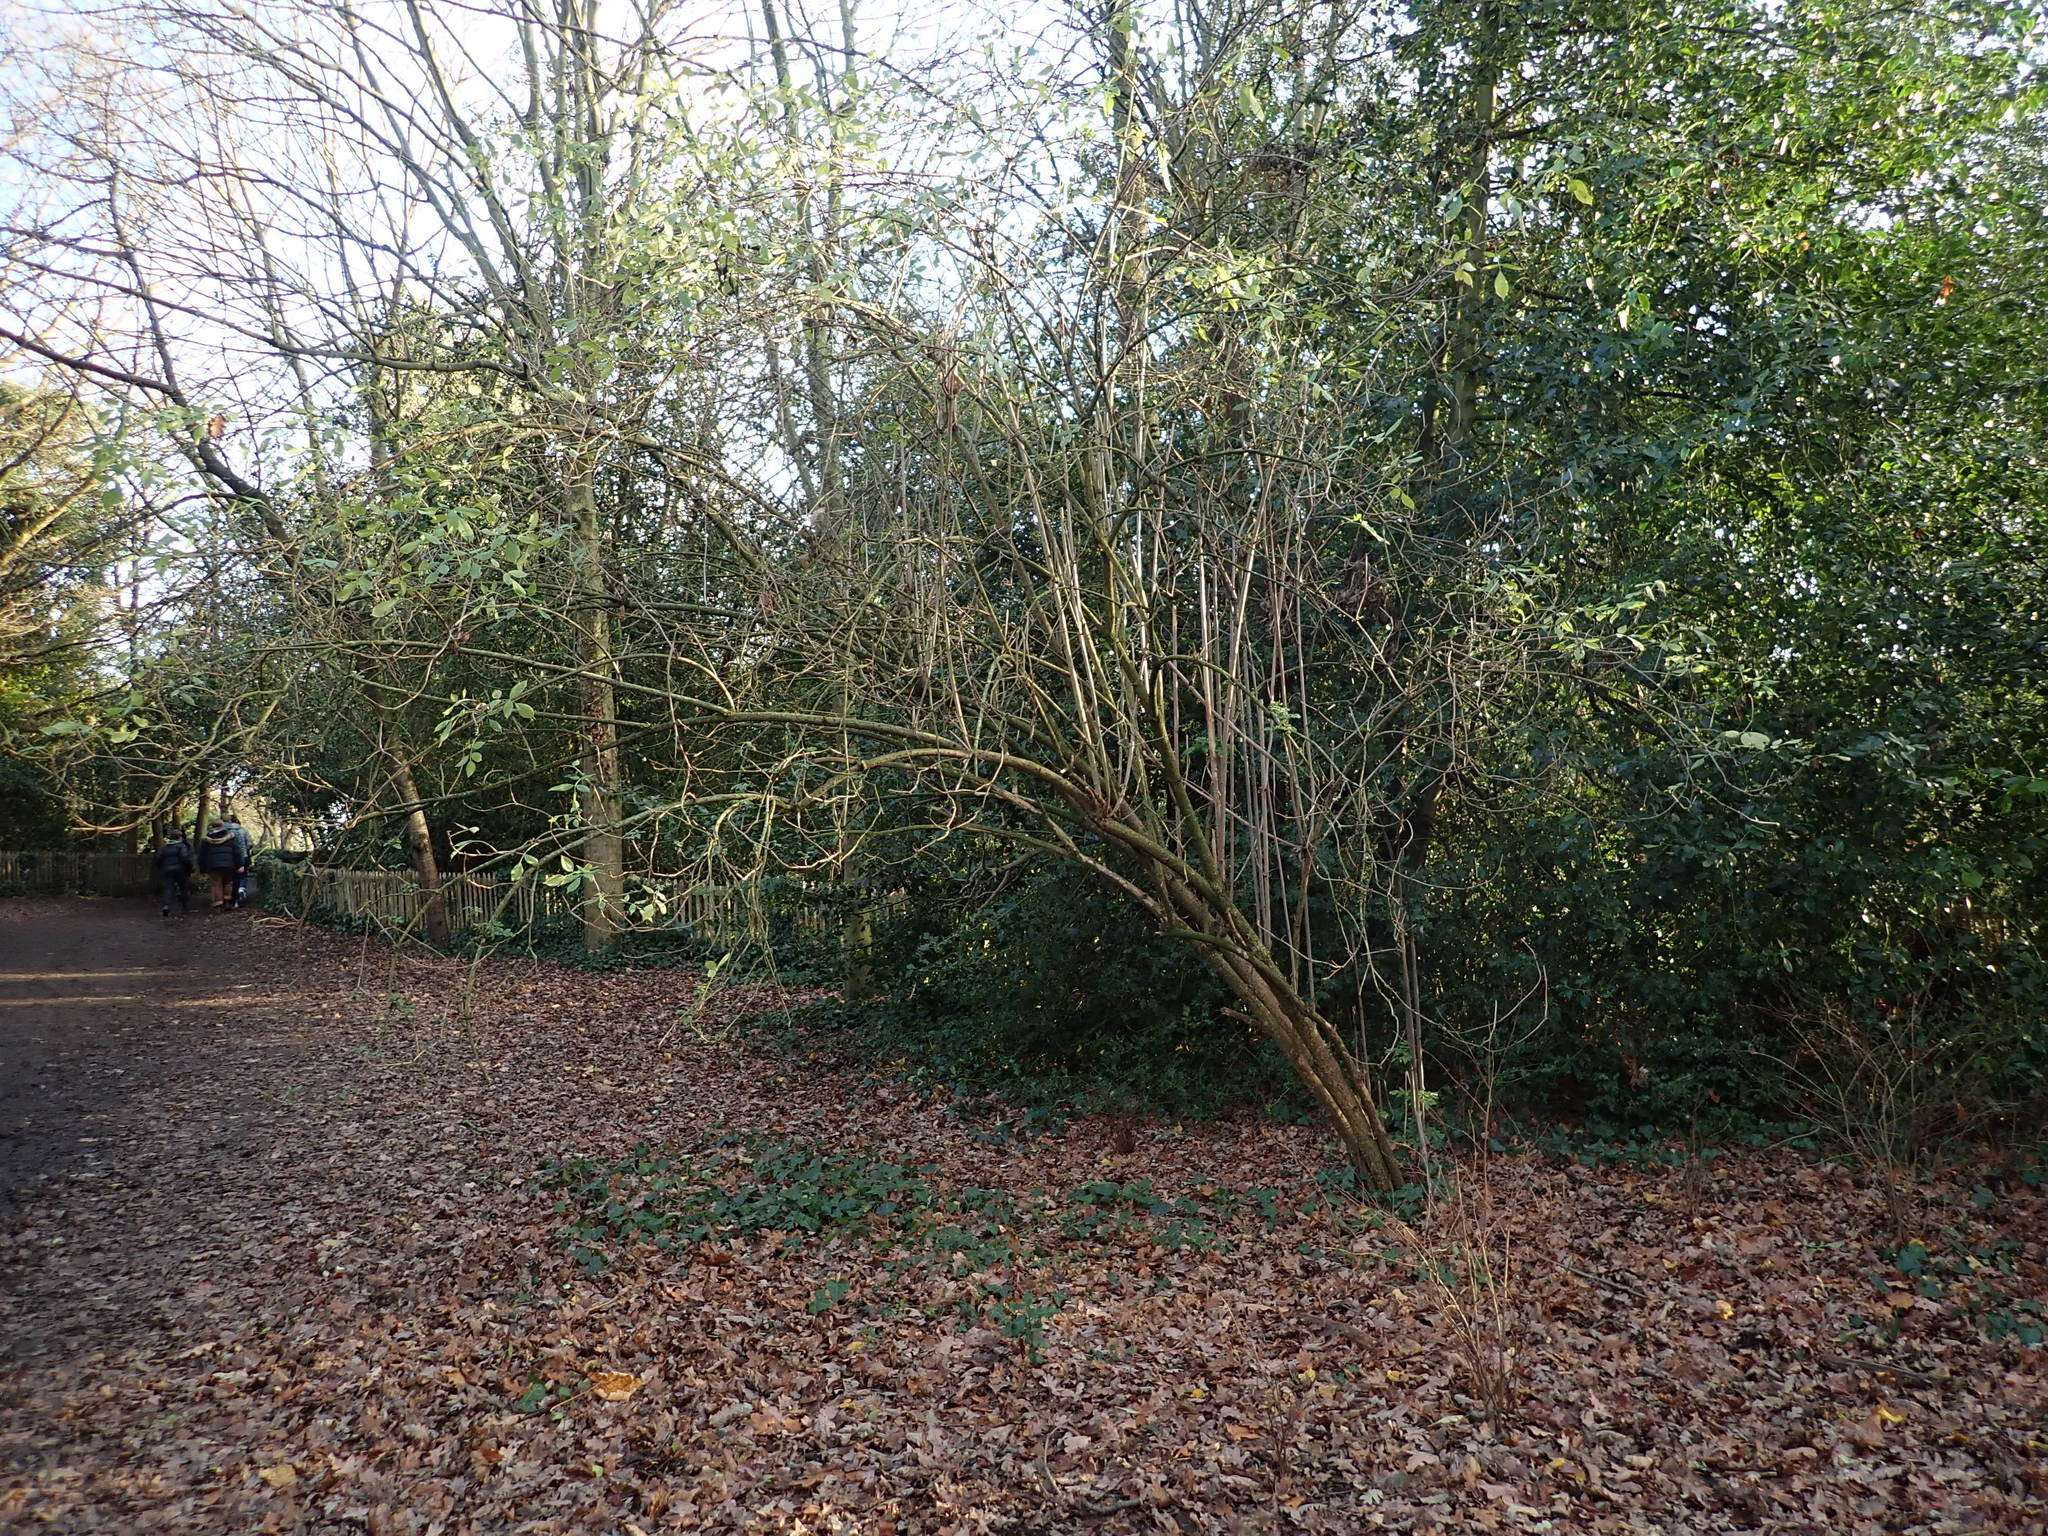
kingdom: Plantae
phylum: Tracheophyta
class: Magnoliopsida
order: Dipsacales
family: Viburnaceae
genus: Sambucus
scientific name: Sambucus nigra
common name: Elder
